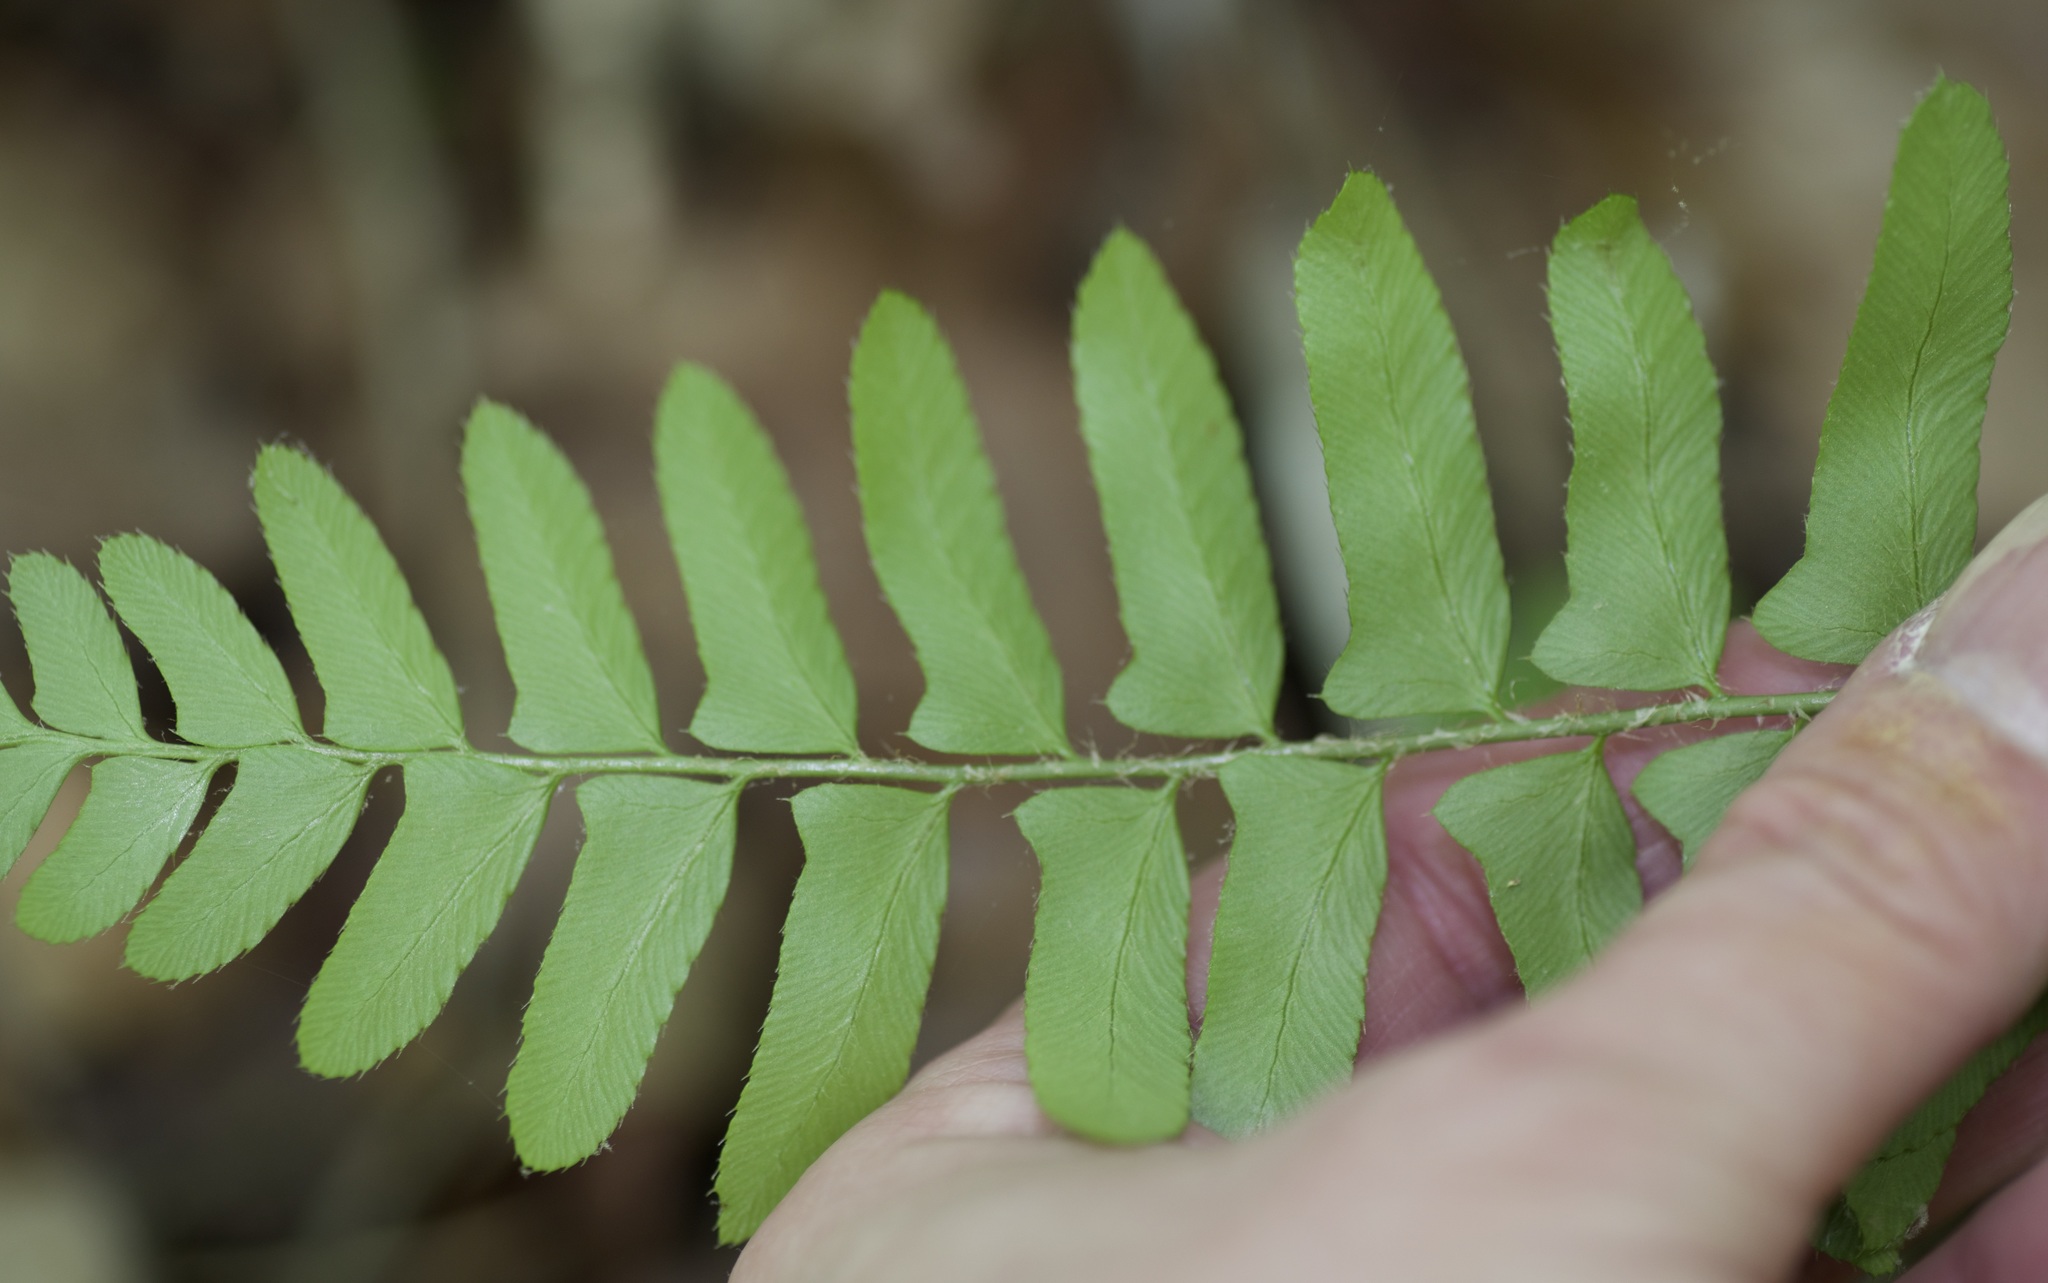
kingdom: Plantae
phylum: Tracheophyta
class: Polypodiopsida
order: Polypodiales
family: Dryopteridaceae
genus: Polystichum
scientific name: Polystichum acrostichoides
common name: Christmas fern
